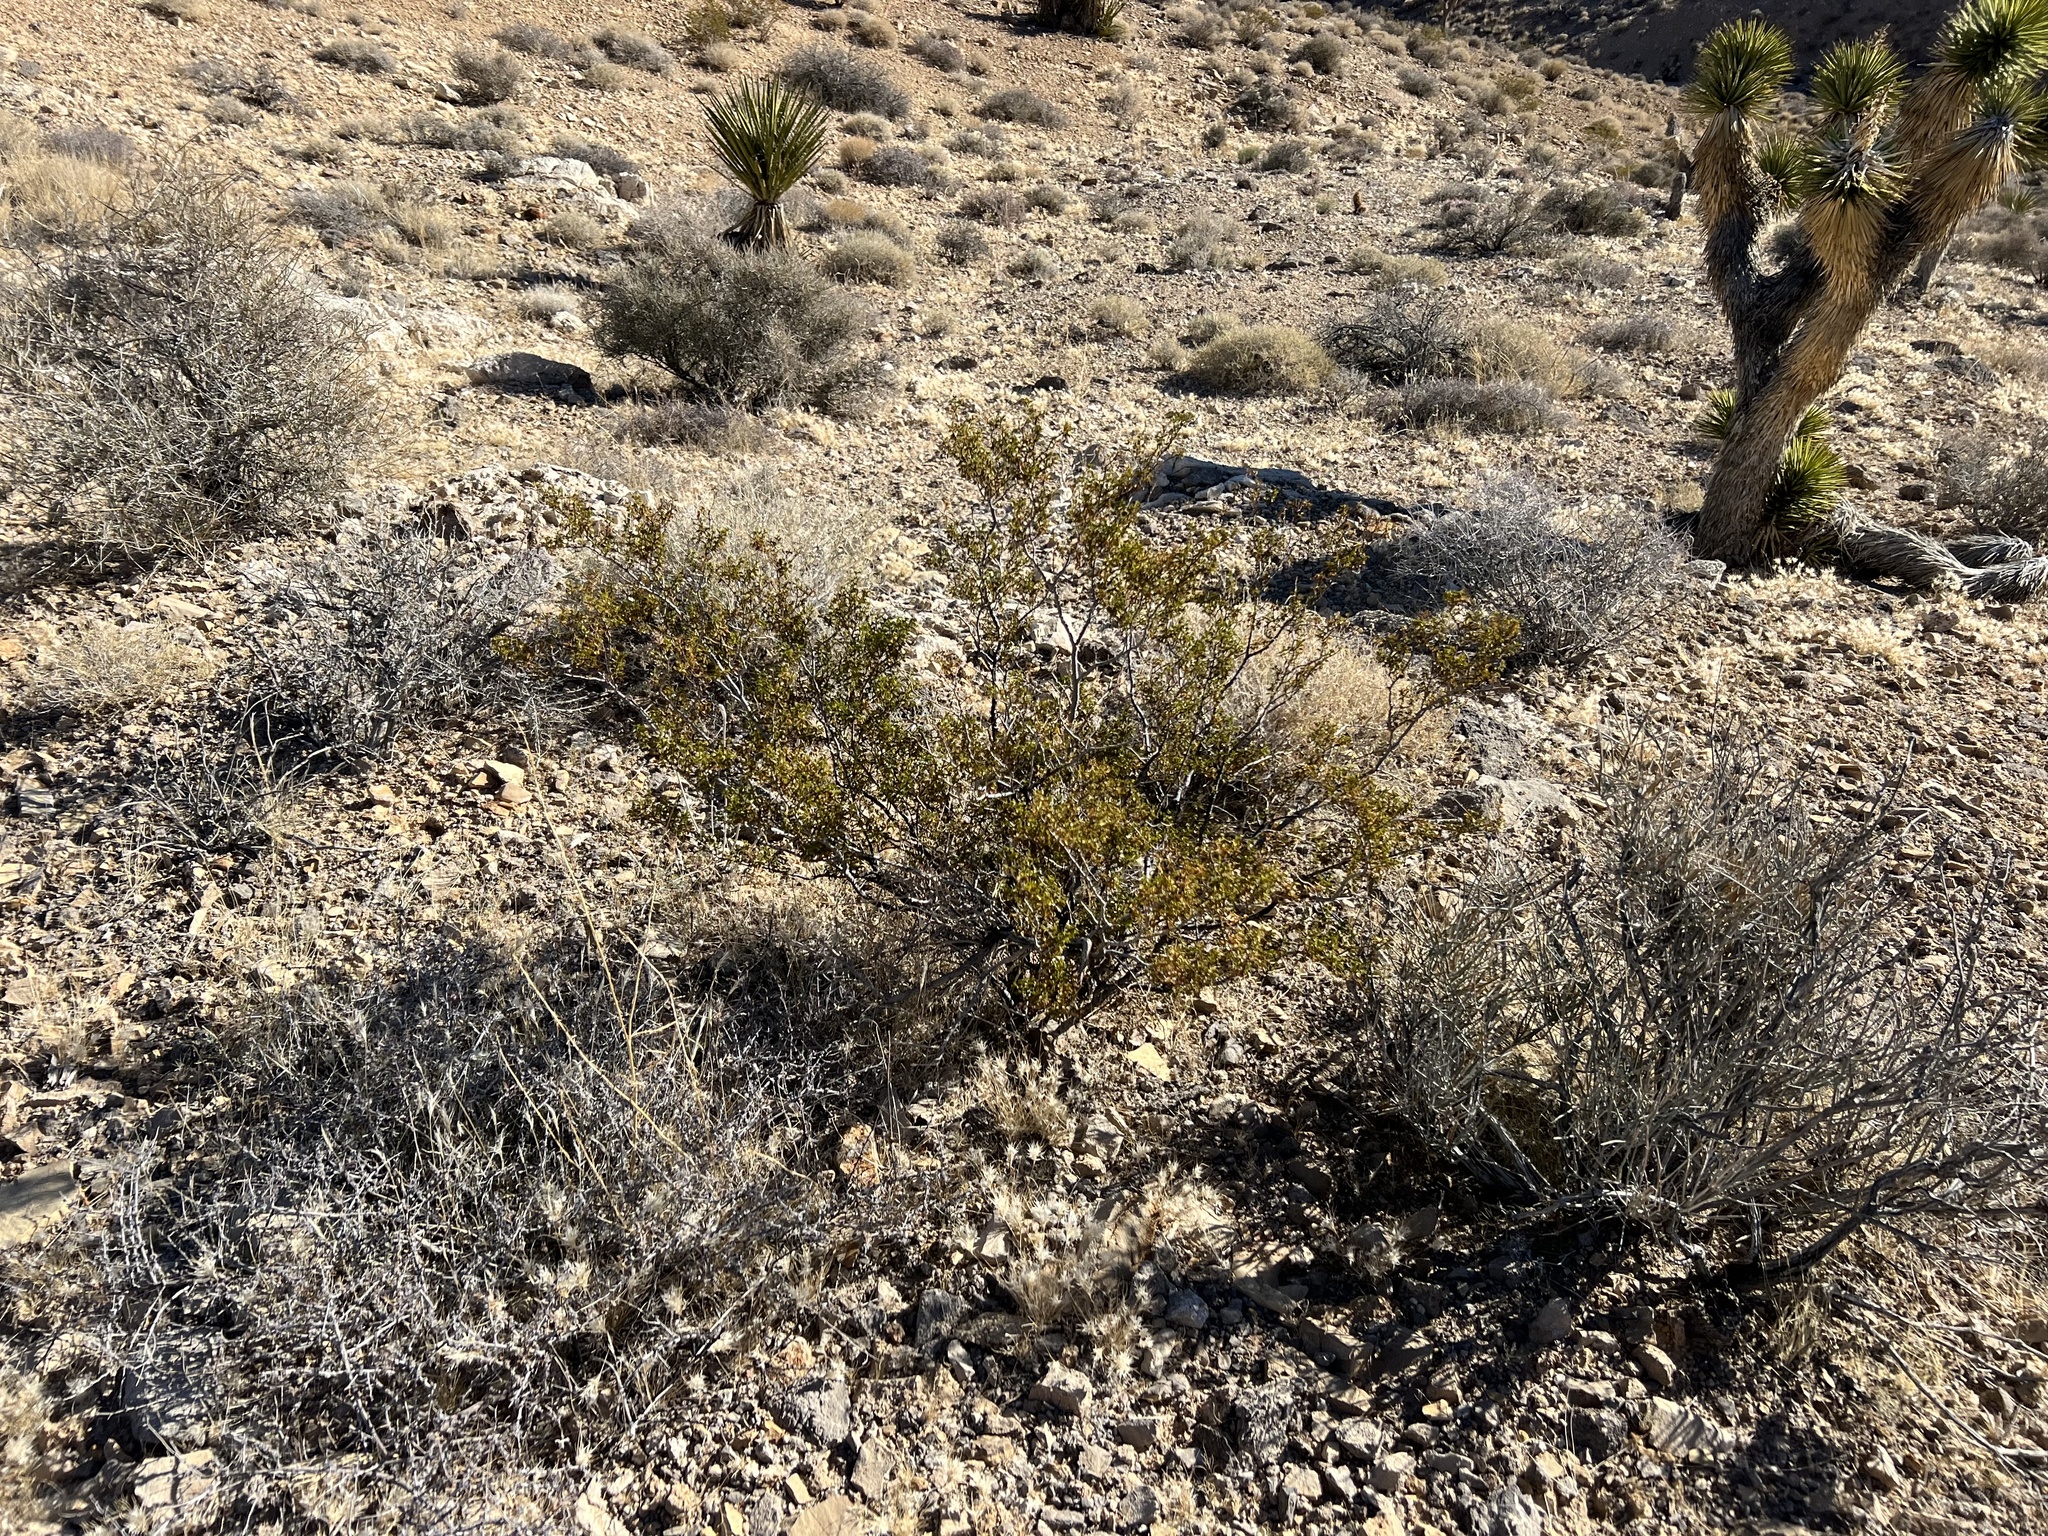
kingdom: Plantae
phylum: Tracheophyta
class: Magnoliopsida
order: Zygophyllales
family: Zygophyllaceae
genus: Larrea
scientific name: Larrea tridentata
